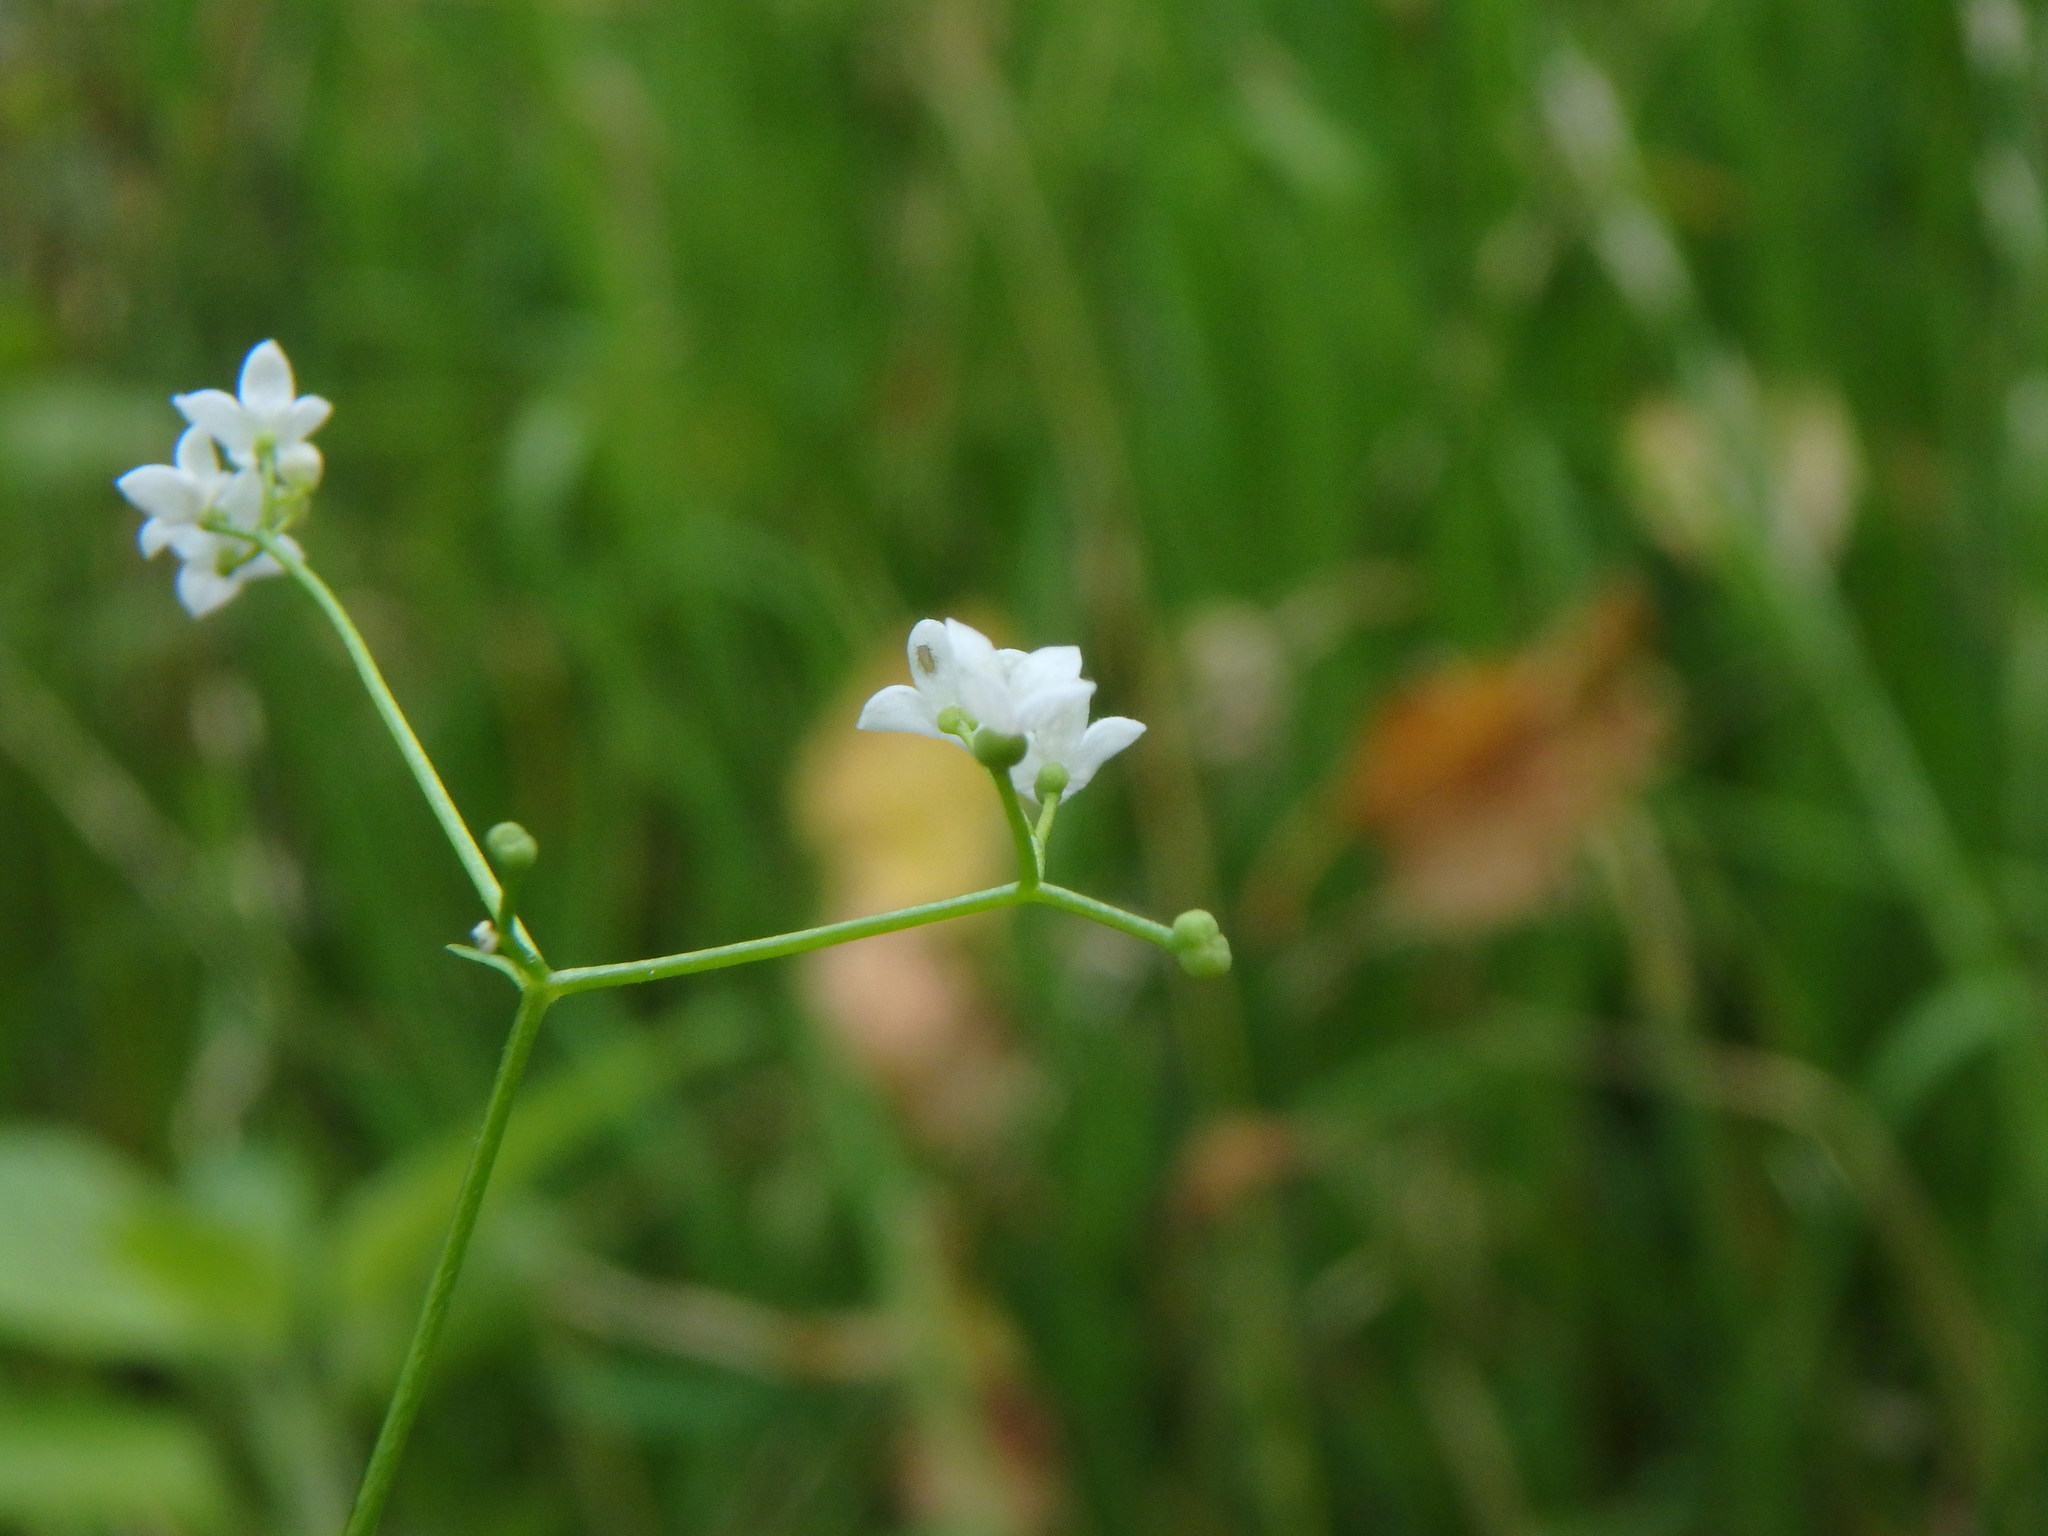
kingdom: Plantae
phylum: Tracheophyta
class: Magnoliopsida
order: Gentianales
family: Rubiaceae
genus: Galium
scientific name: Galium palustre
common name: Common marsh-bedstraw
